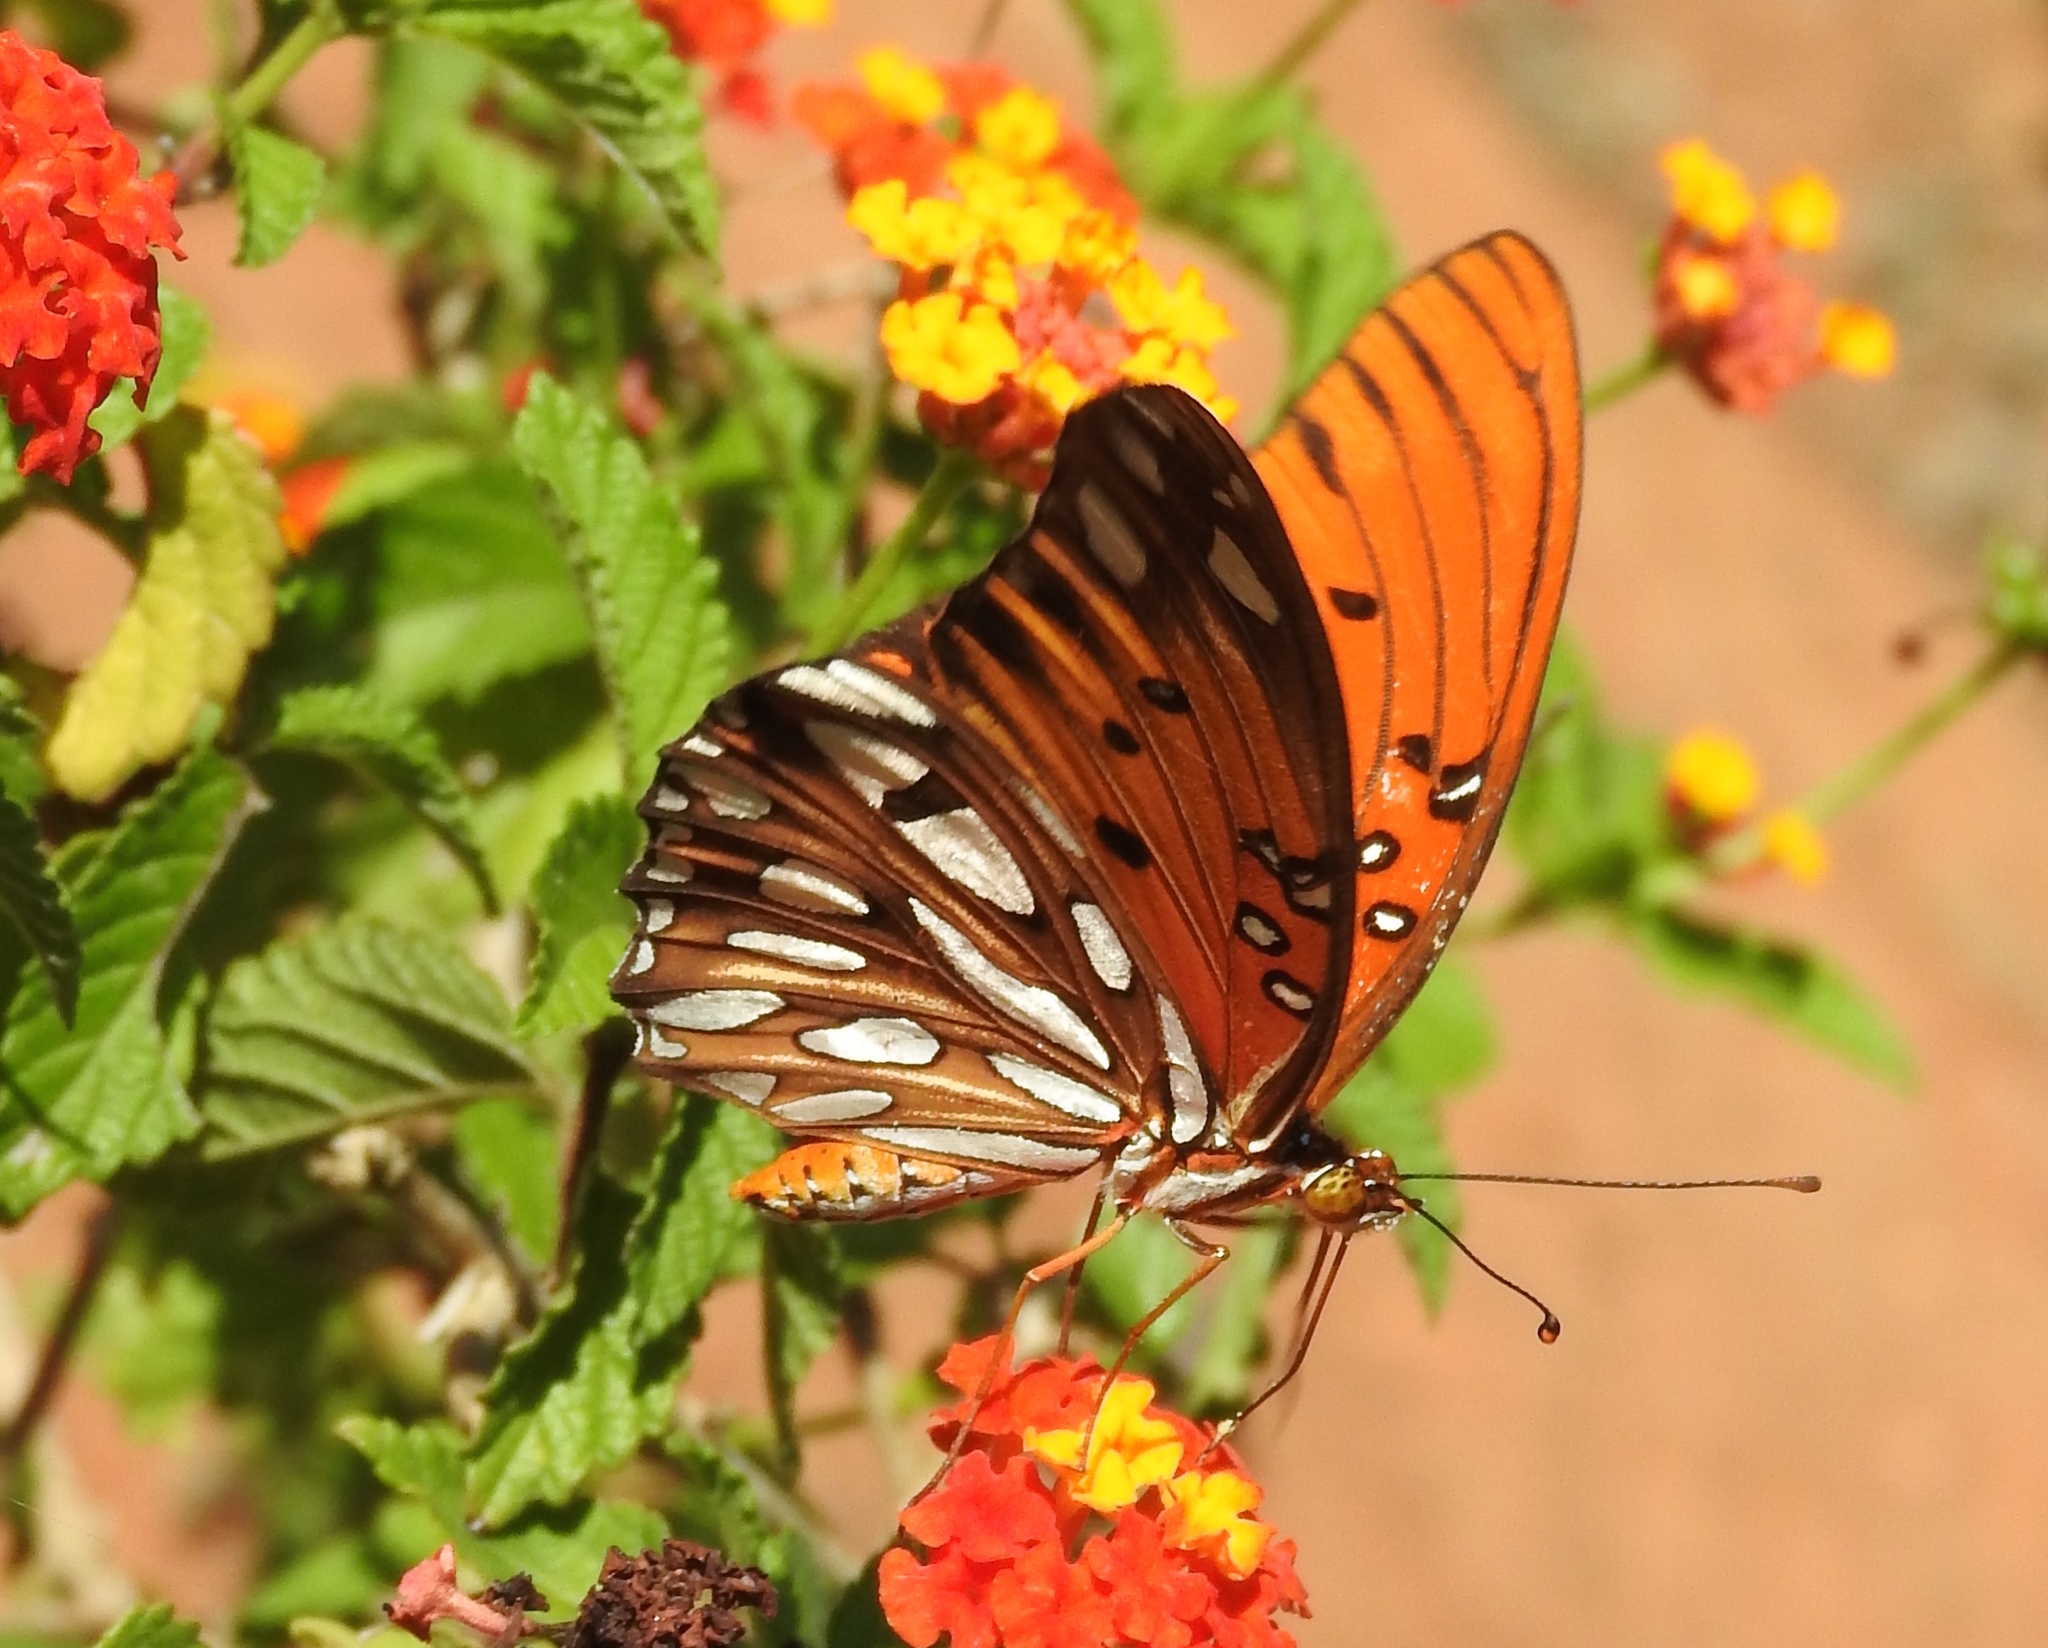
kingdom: Animalia
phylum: Arthropoda
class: Insecta
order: Lepidoptera
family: Nymphalidae
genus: Dione
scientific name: Dione vanillae
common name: Gulf fritillary
